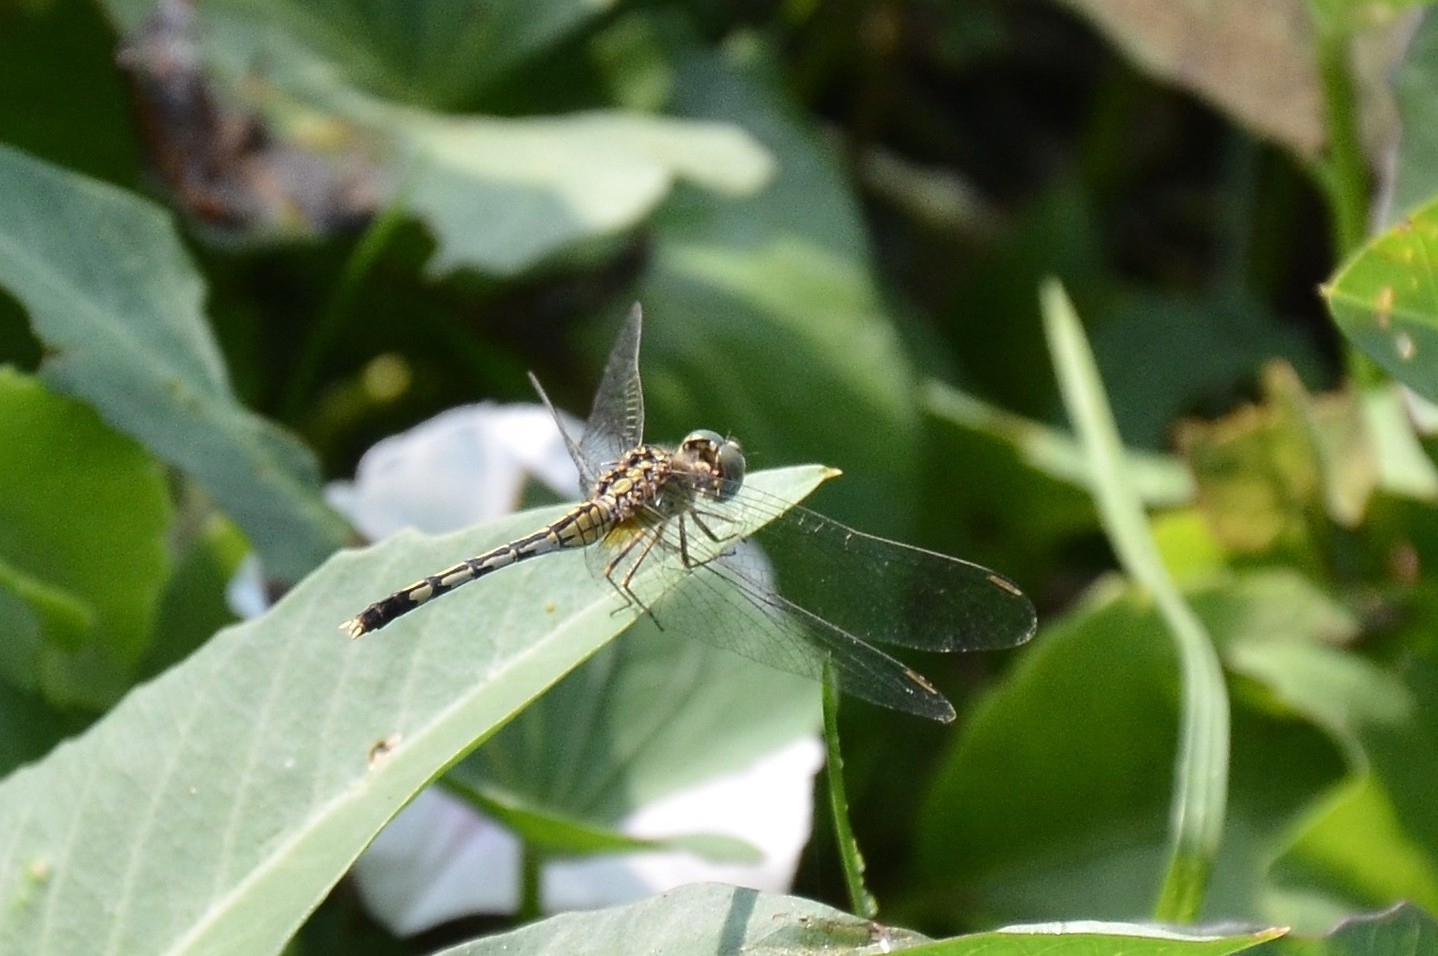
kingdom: Animalia
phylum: Arthropoda
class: Insecta
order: Odonata
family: Libellulidae
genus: Diplacodes
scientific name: Diplacodes trivialis
